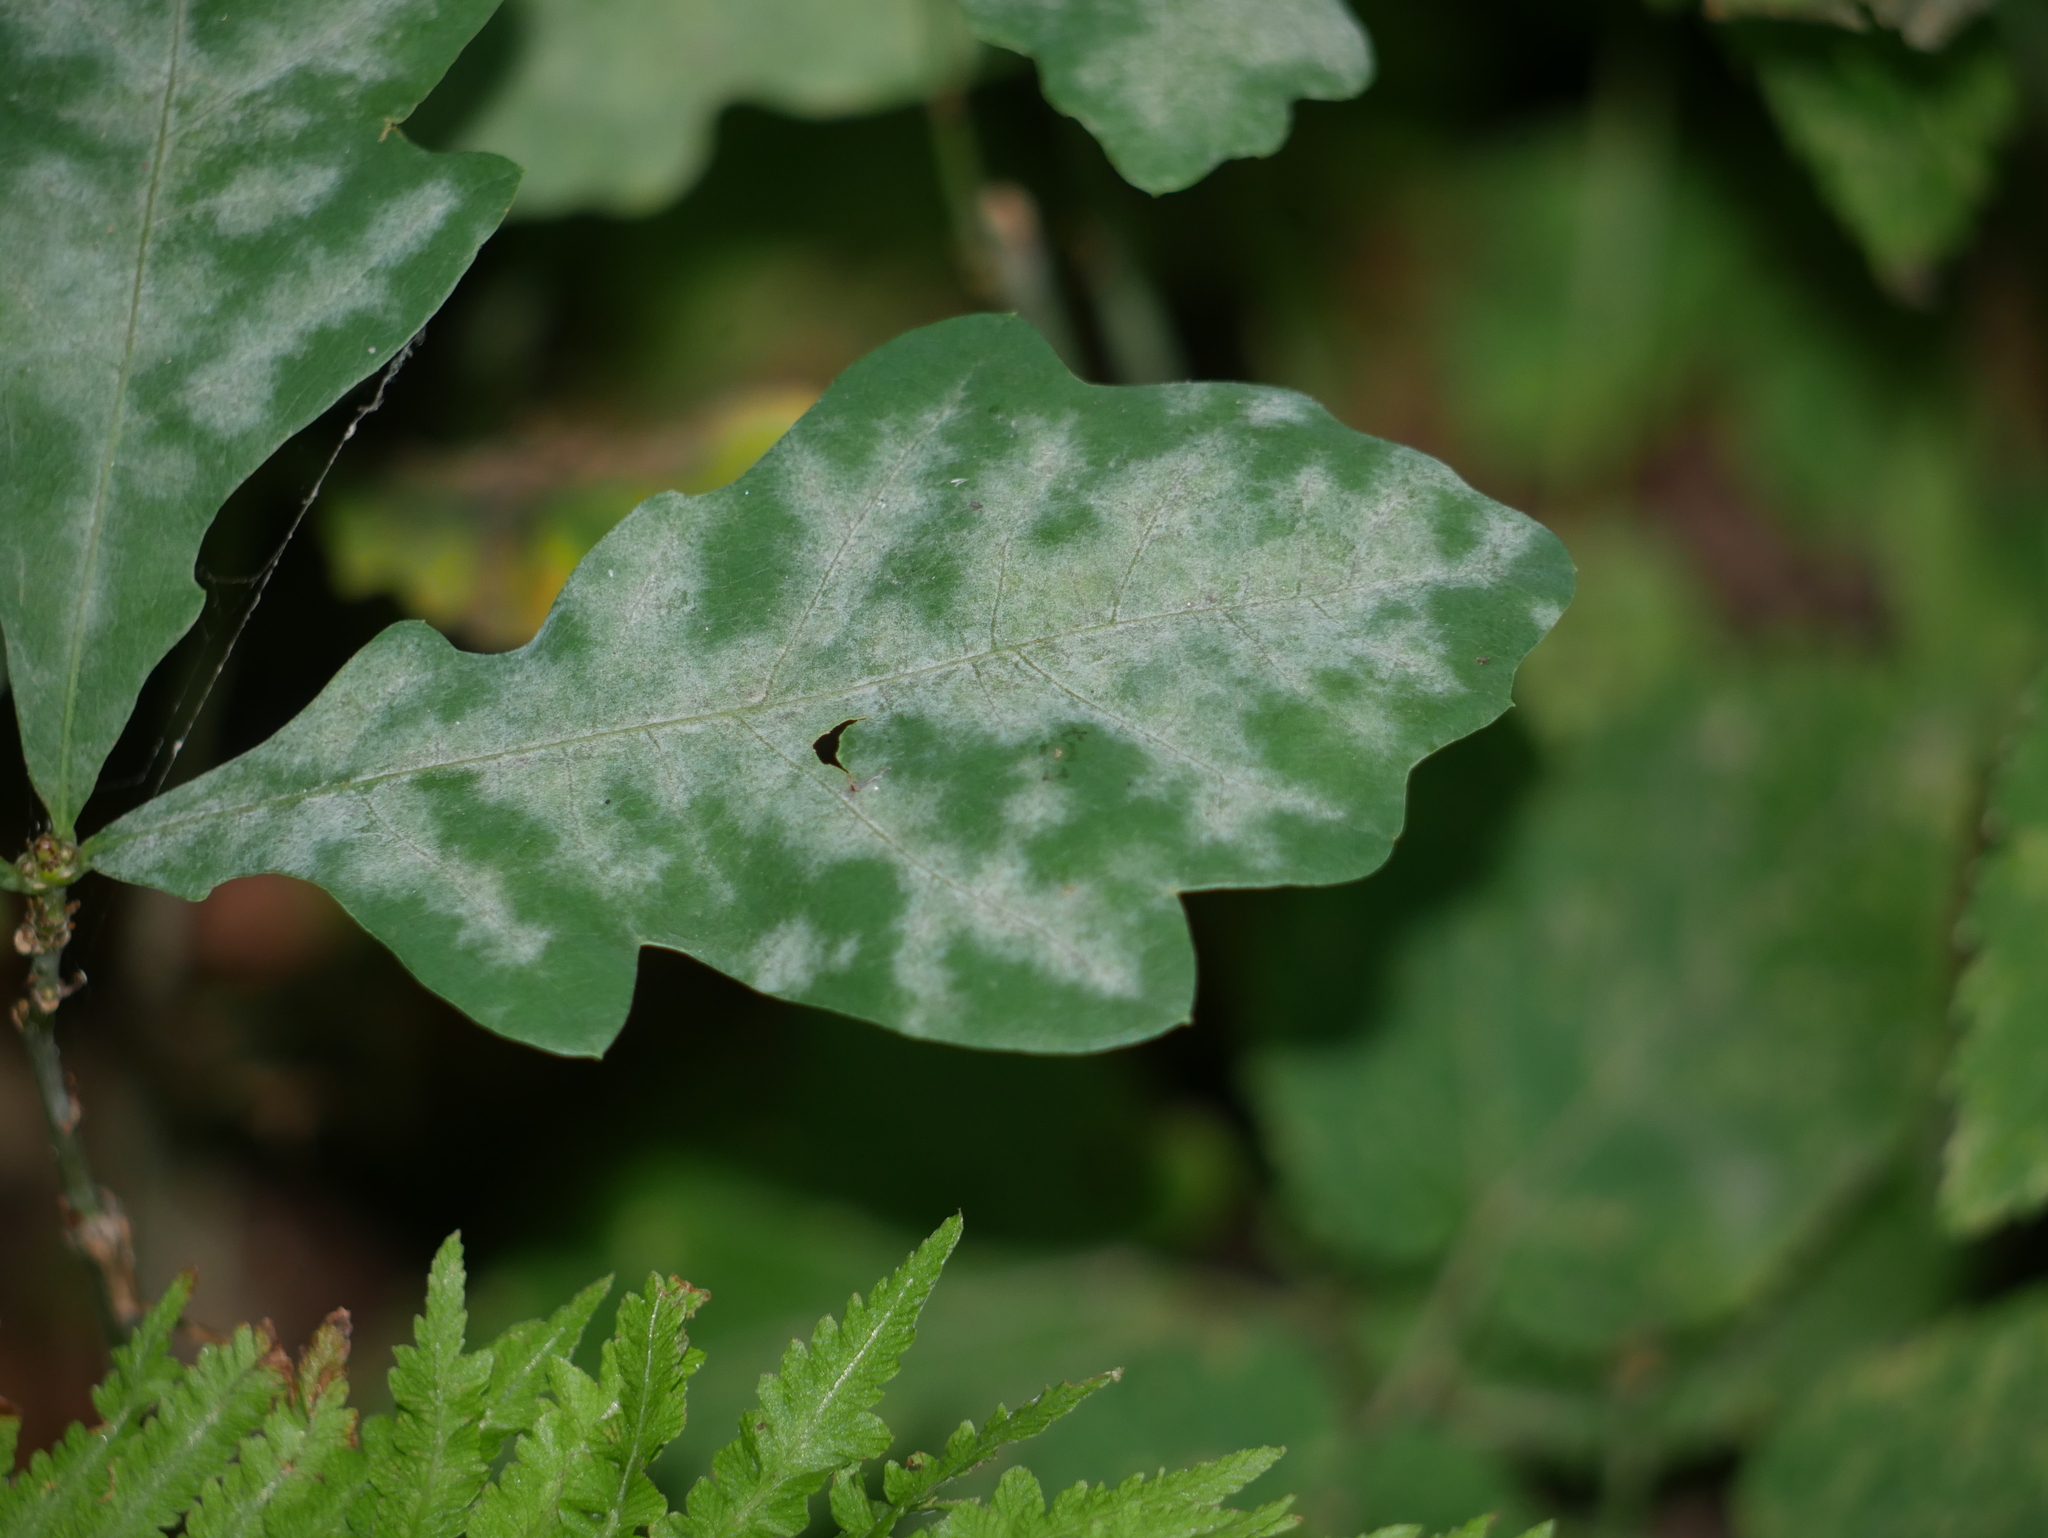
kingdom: Fungi
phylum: Ascomycota
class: Leotiomycetes
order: Helotiales
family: Erysiphaceae
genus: Erysiphe
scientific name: Erysiphe
